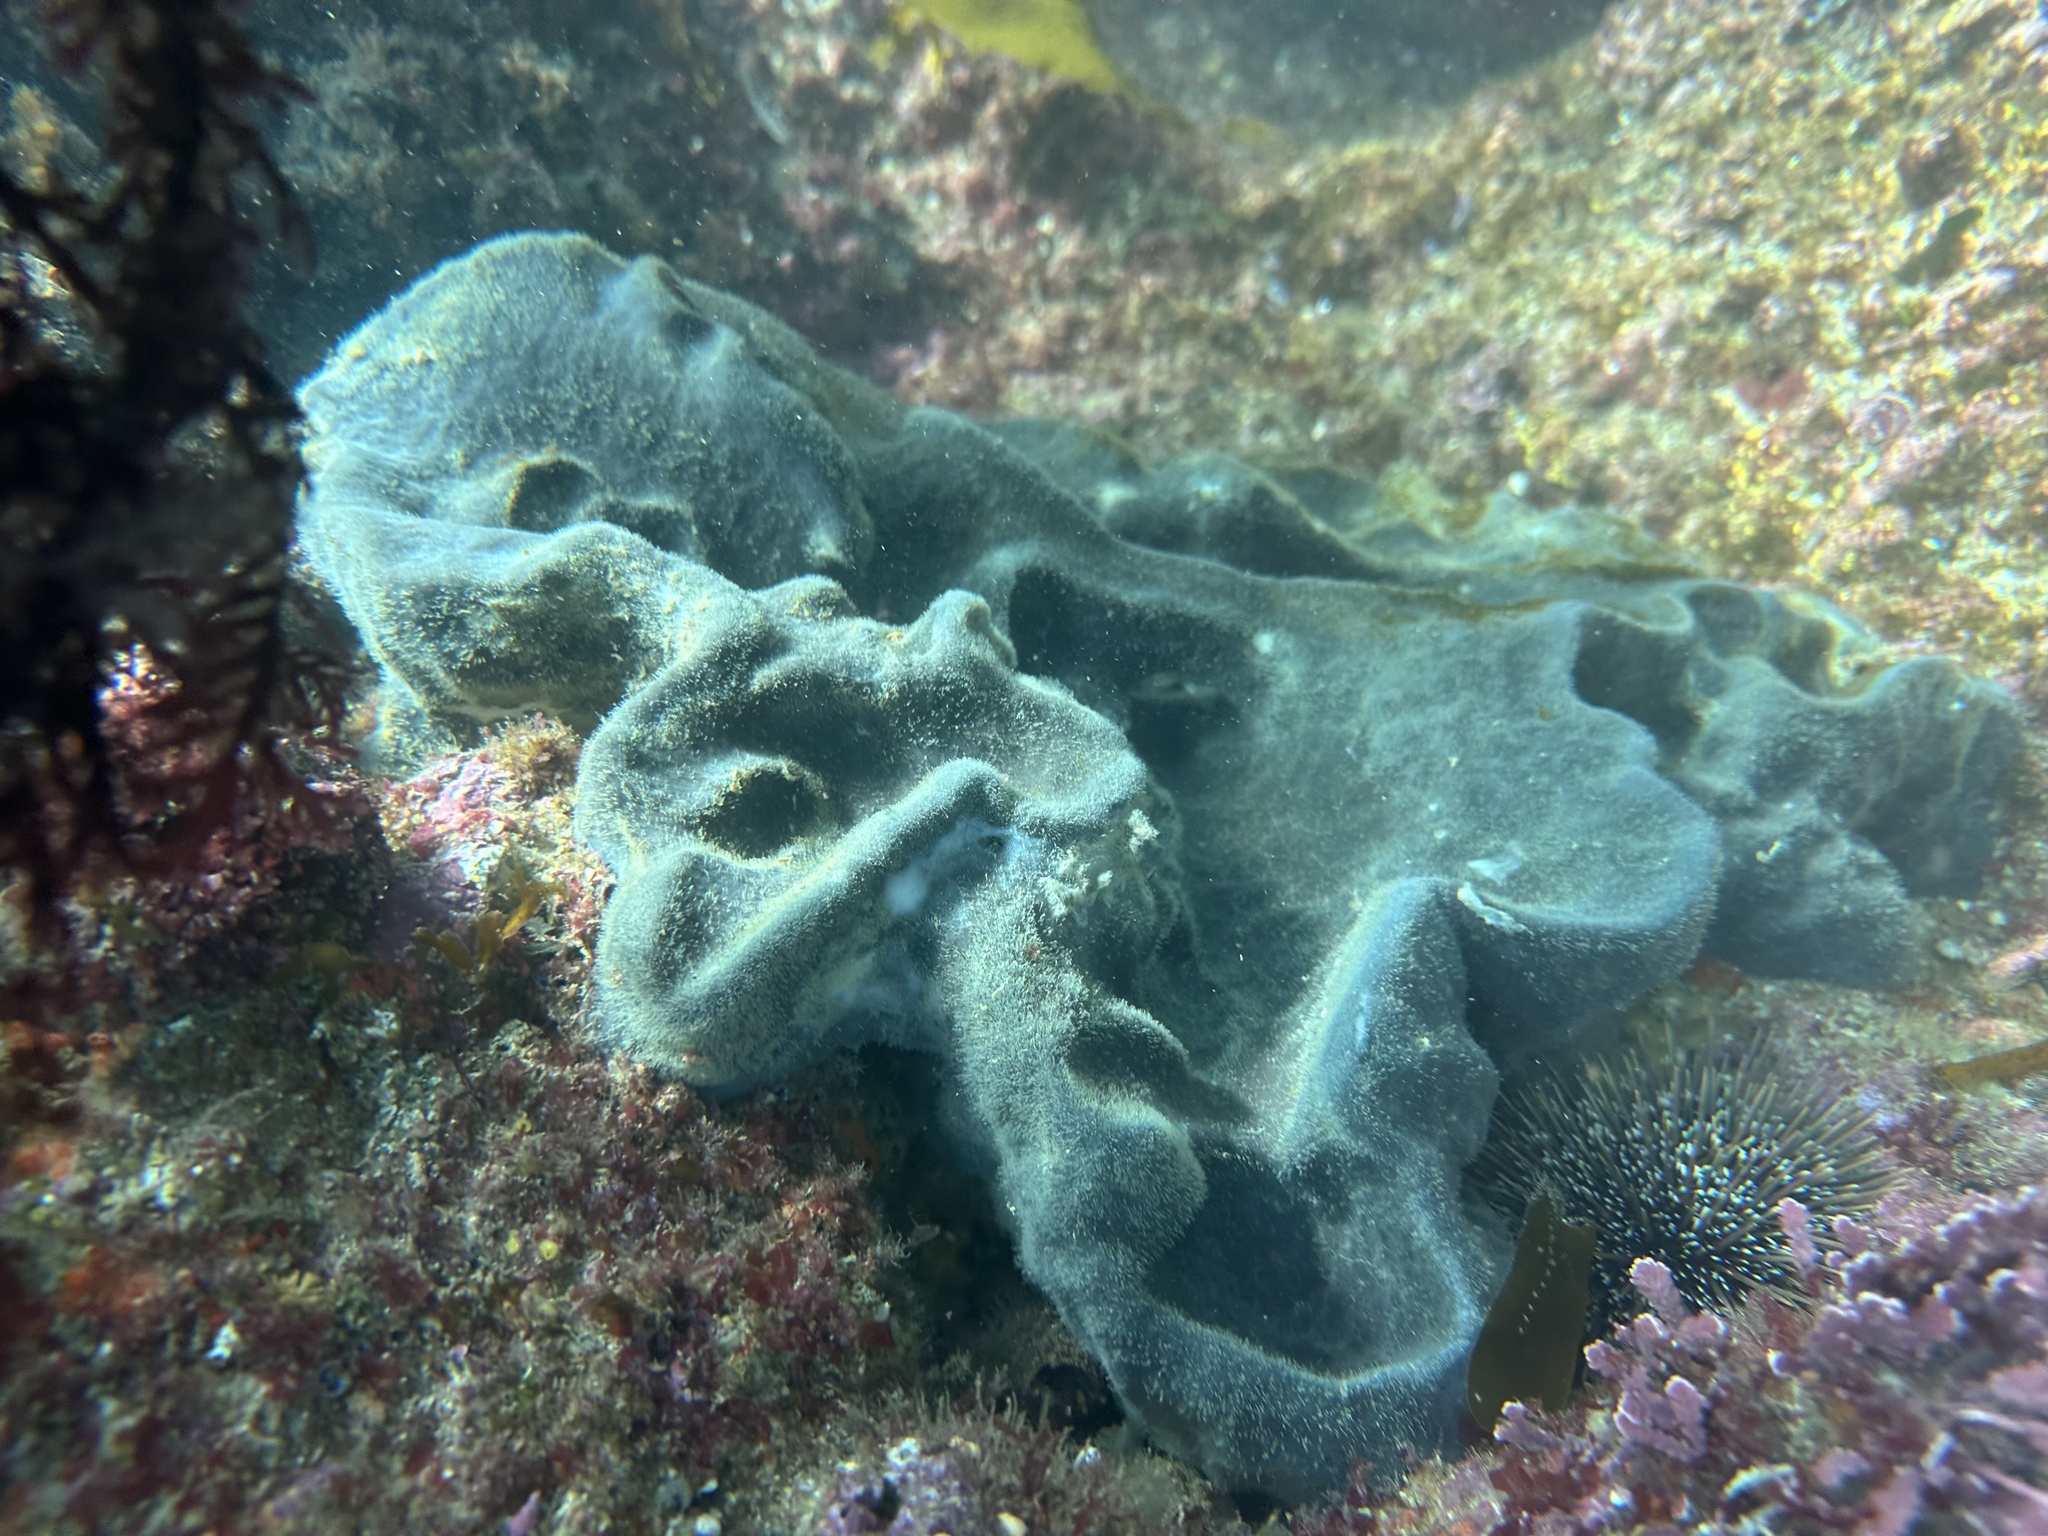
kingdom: Animalia
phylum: Porifera
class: Demospongiae
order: Tetractinellida
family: Ancorinidae
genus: Ecionemia
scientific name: Ecionemia alata
